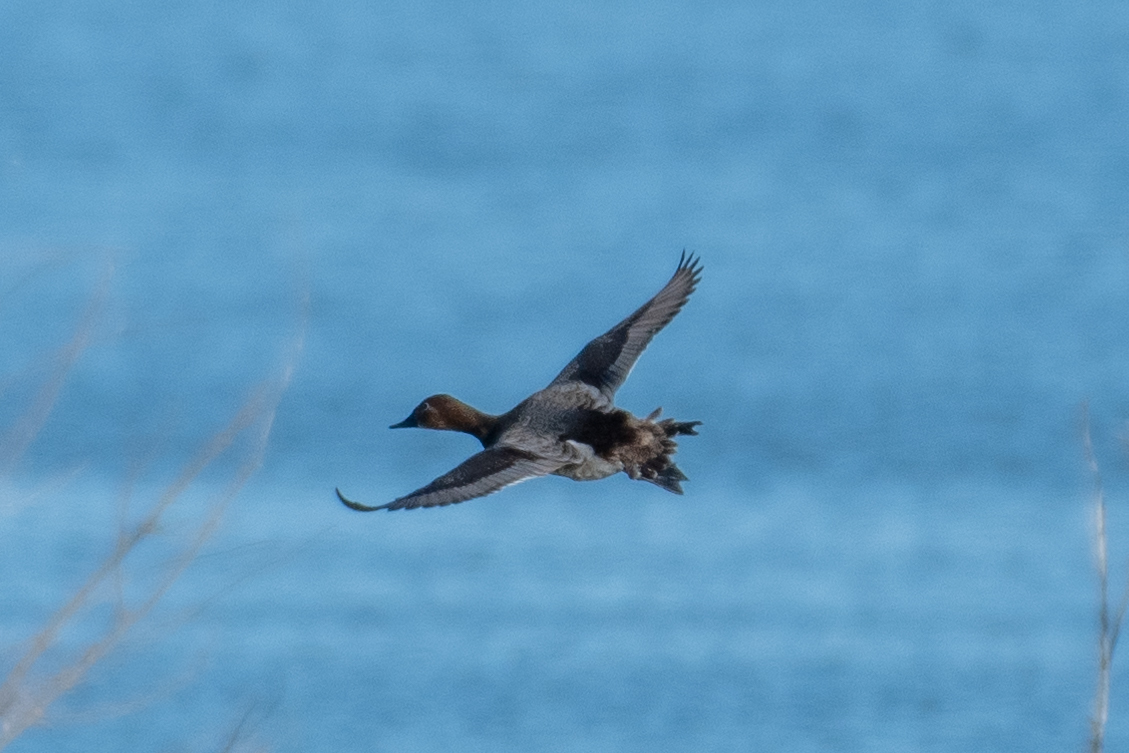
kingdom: Animalia
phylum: Chordata
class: Aves
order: Anseriformes
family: Anatidae
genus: Aythya
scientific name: Aythya valisineria
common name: Canvasback
